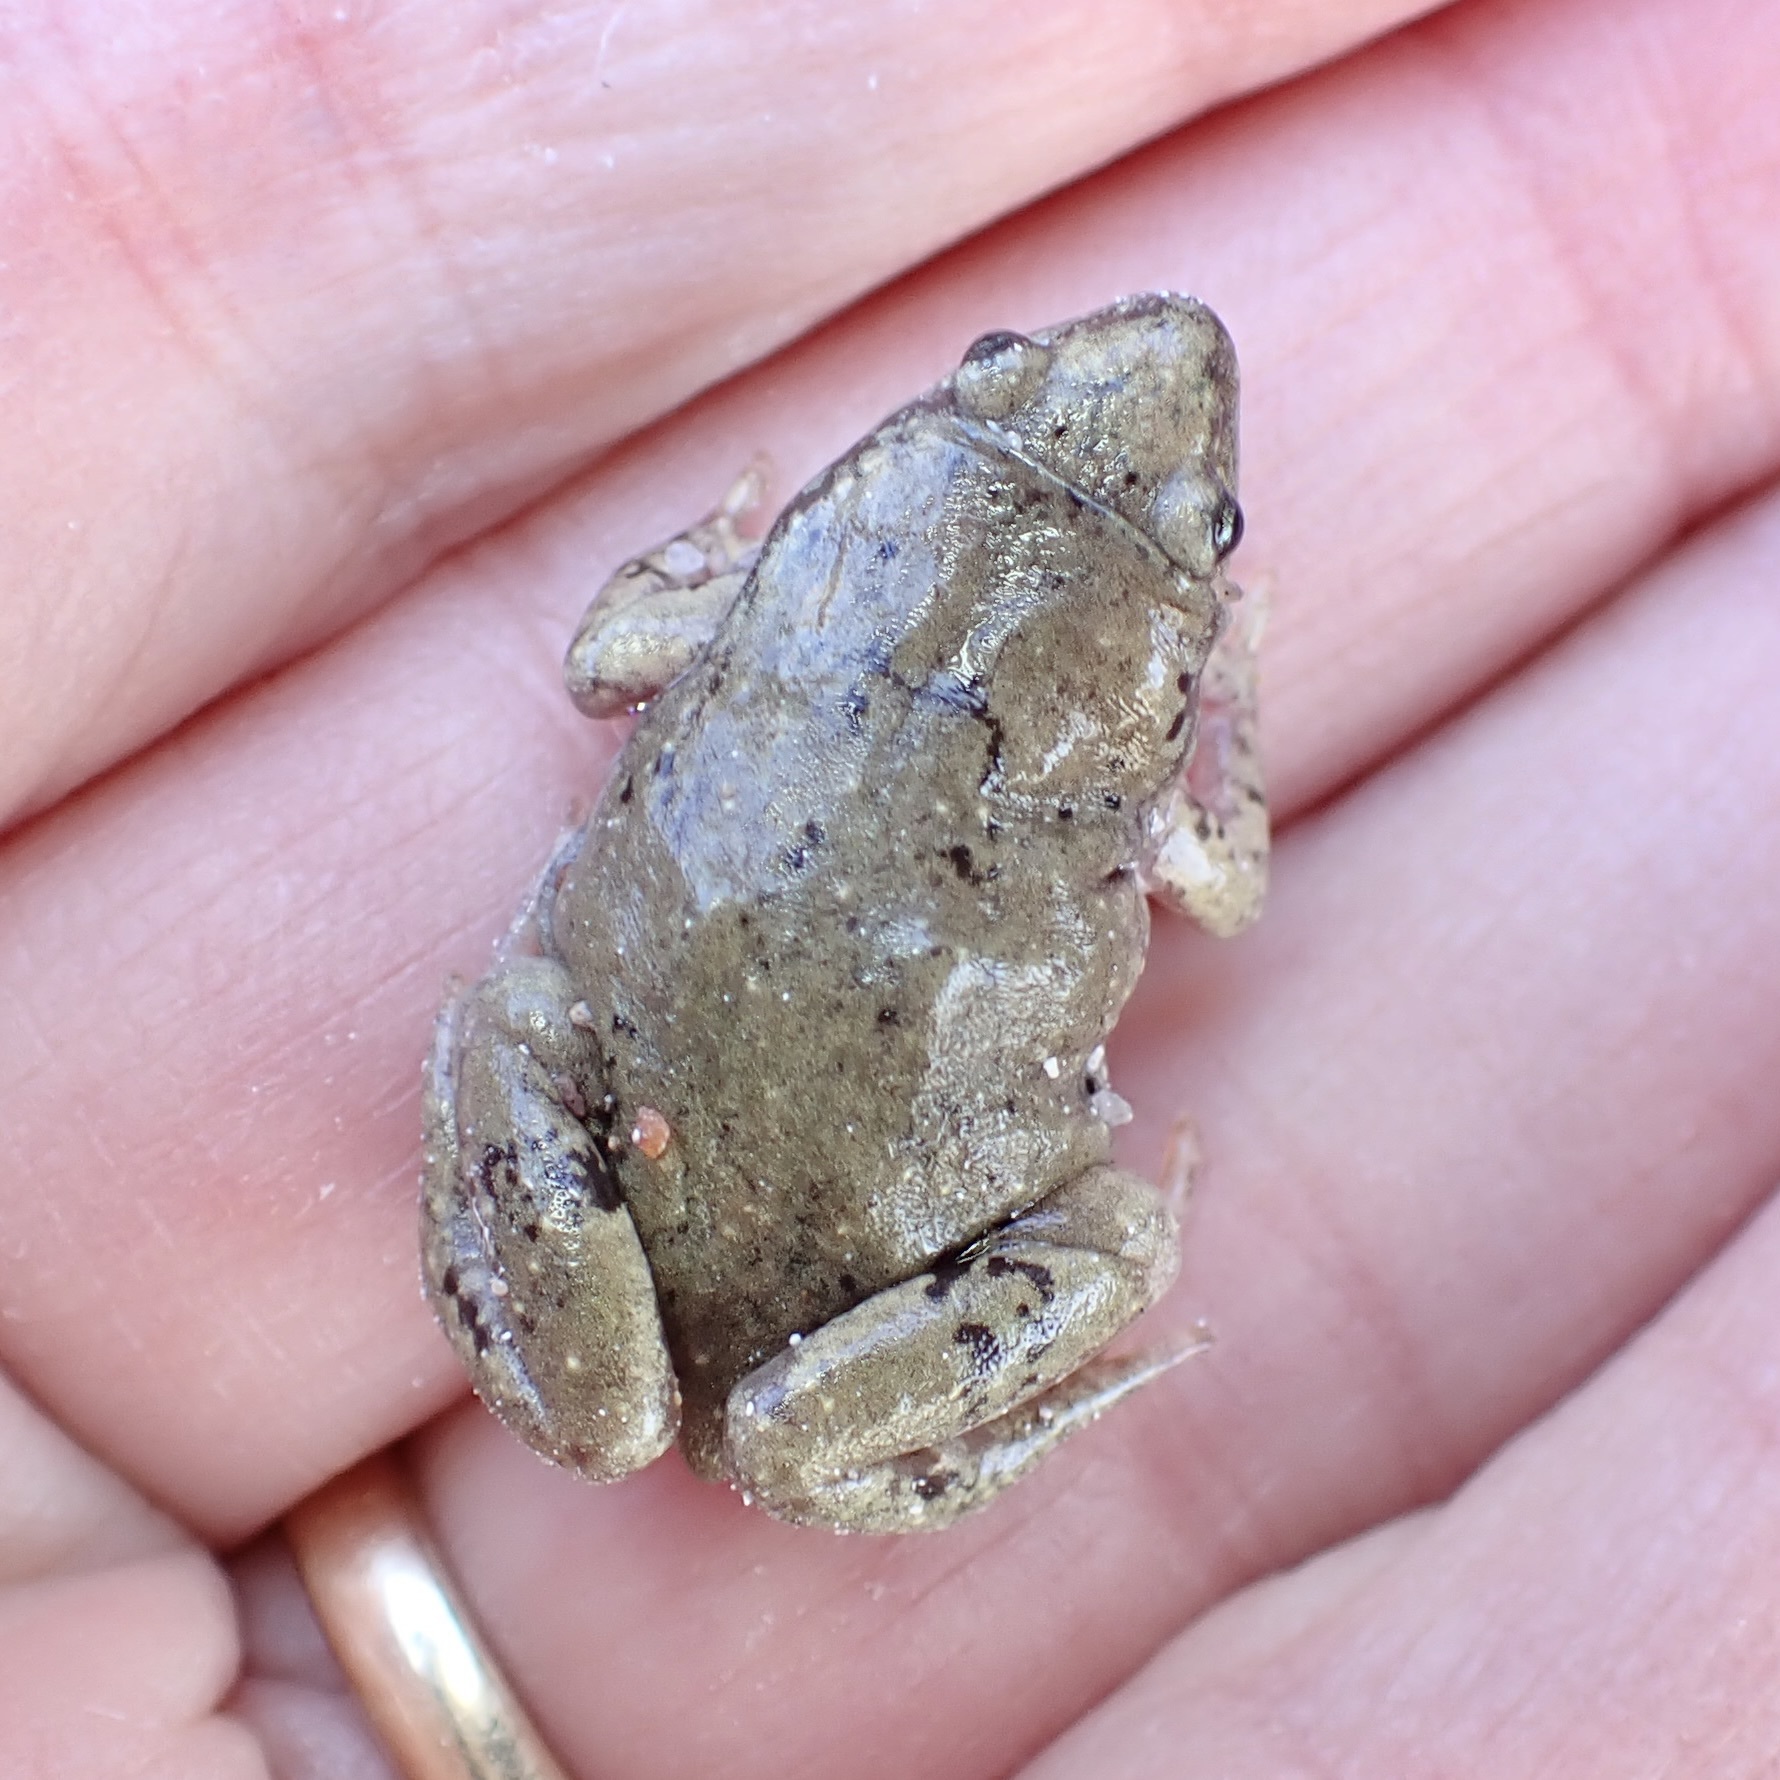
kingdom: Animalia
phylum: Chordata
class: Amphibia
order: Anura
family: Microhylidae
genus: Gastrophryne
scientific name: Gastrophryne mazatlanensis
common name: Sinaloan narrow-mouthed toad
